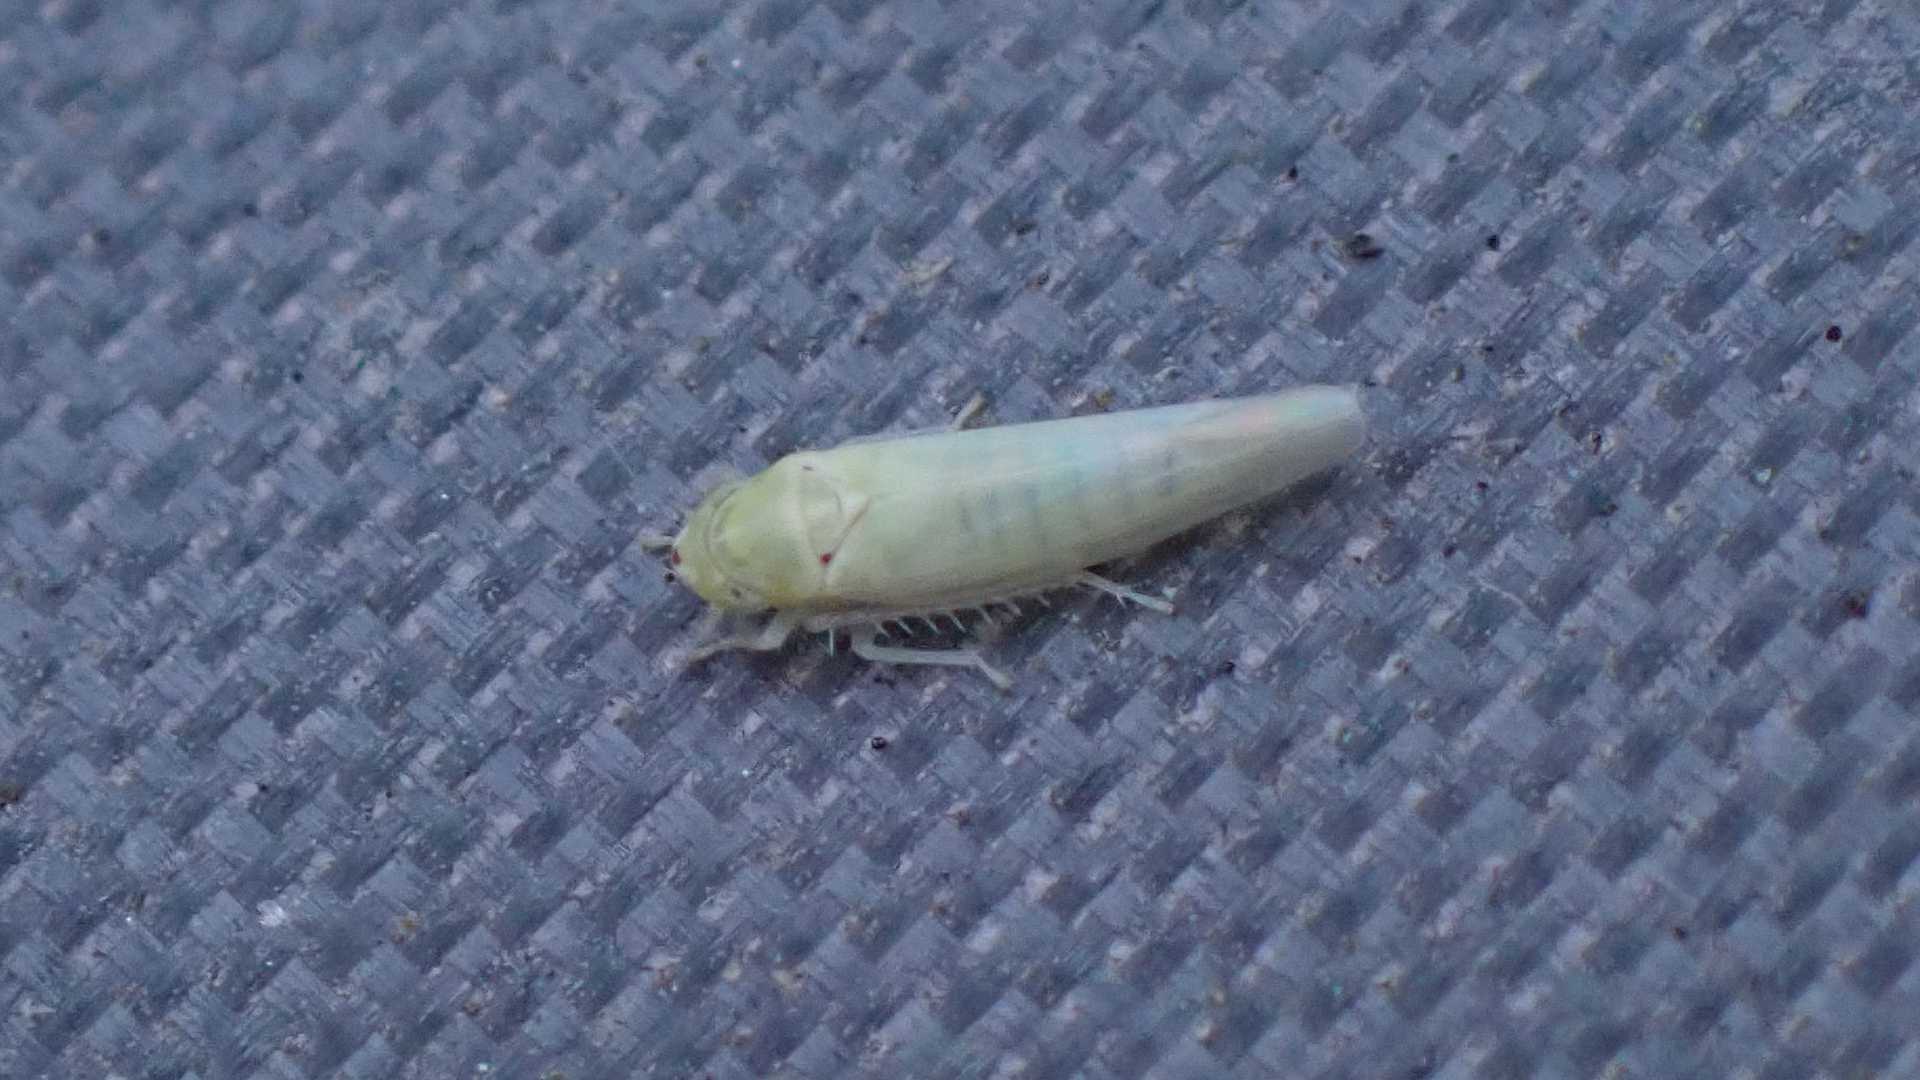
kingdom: Animalia
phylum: Arthropoda
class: Insecta
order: Hemiptera
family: Cicadellidae
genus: Zygina
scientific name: Zygina nivea
